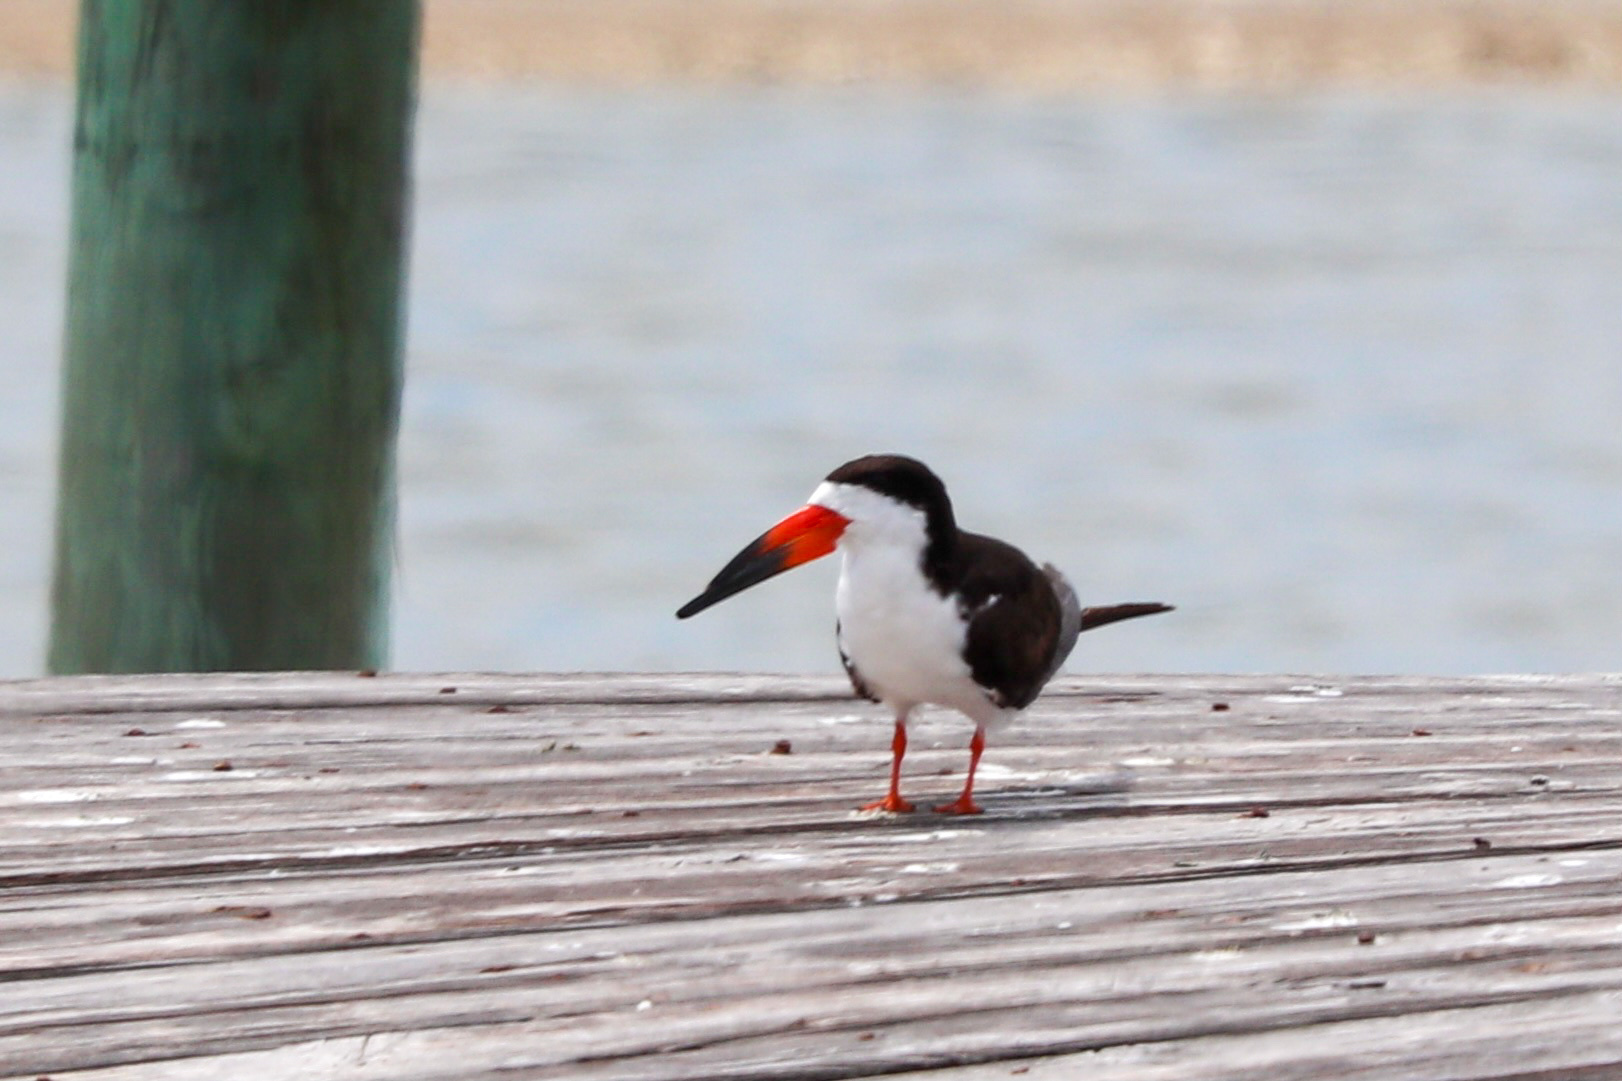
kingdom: Animalia
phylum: Chordata
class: Aves
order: Charadriiformes
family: Laridae
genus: Rynchops
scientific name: Rynchops niger
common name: Black skimmer
